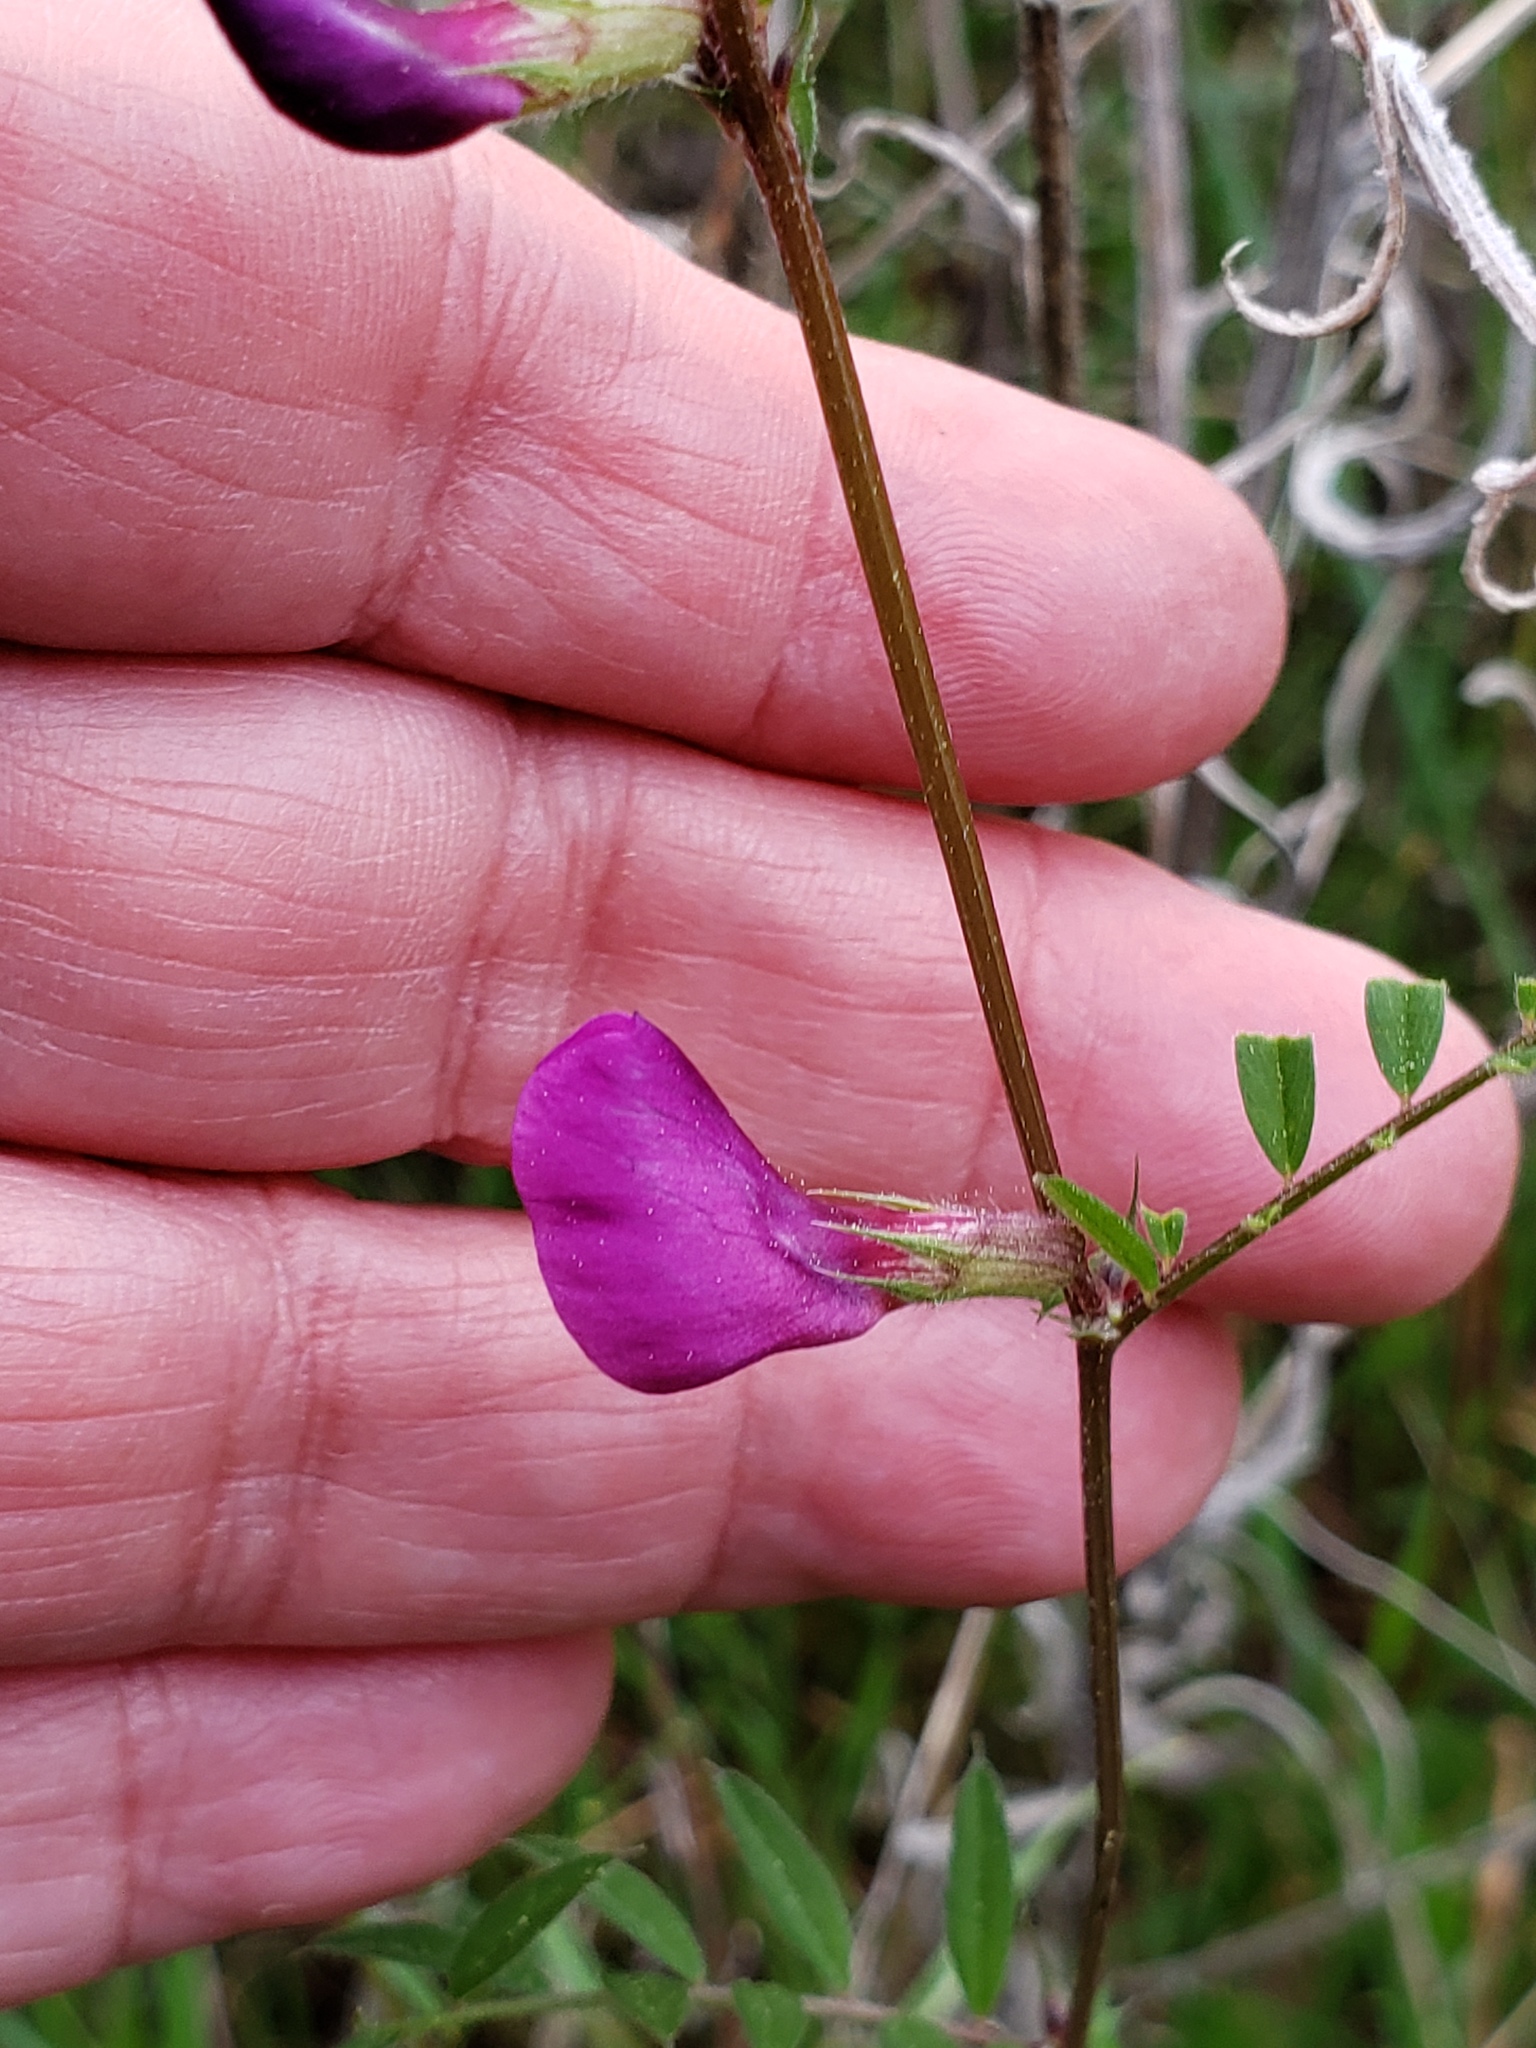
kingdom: Plantae
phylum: Tracheophyta
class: Magnoliopsida
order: Fabales
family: Fabaceae
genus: Vicia
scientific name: Vicia sativa
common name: Garden vetch
